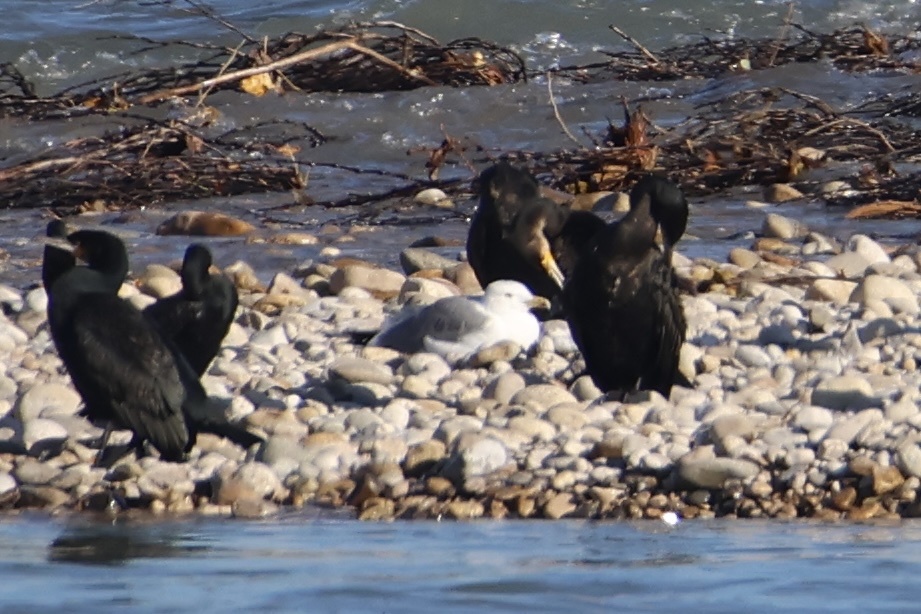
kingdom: Animalia
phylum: Chordata
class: Aves
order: Charadriiformes
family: Laridae
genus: Larus
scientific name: Larus michahellis
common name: Yellow-legged gull
